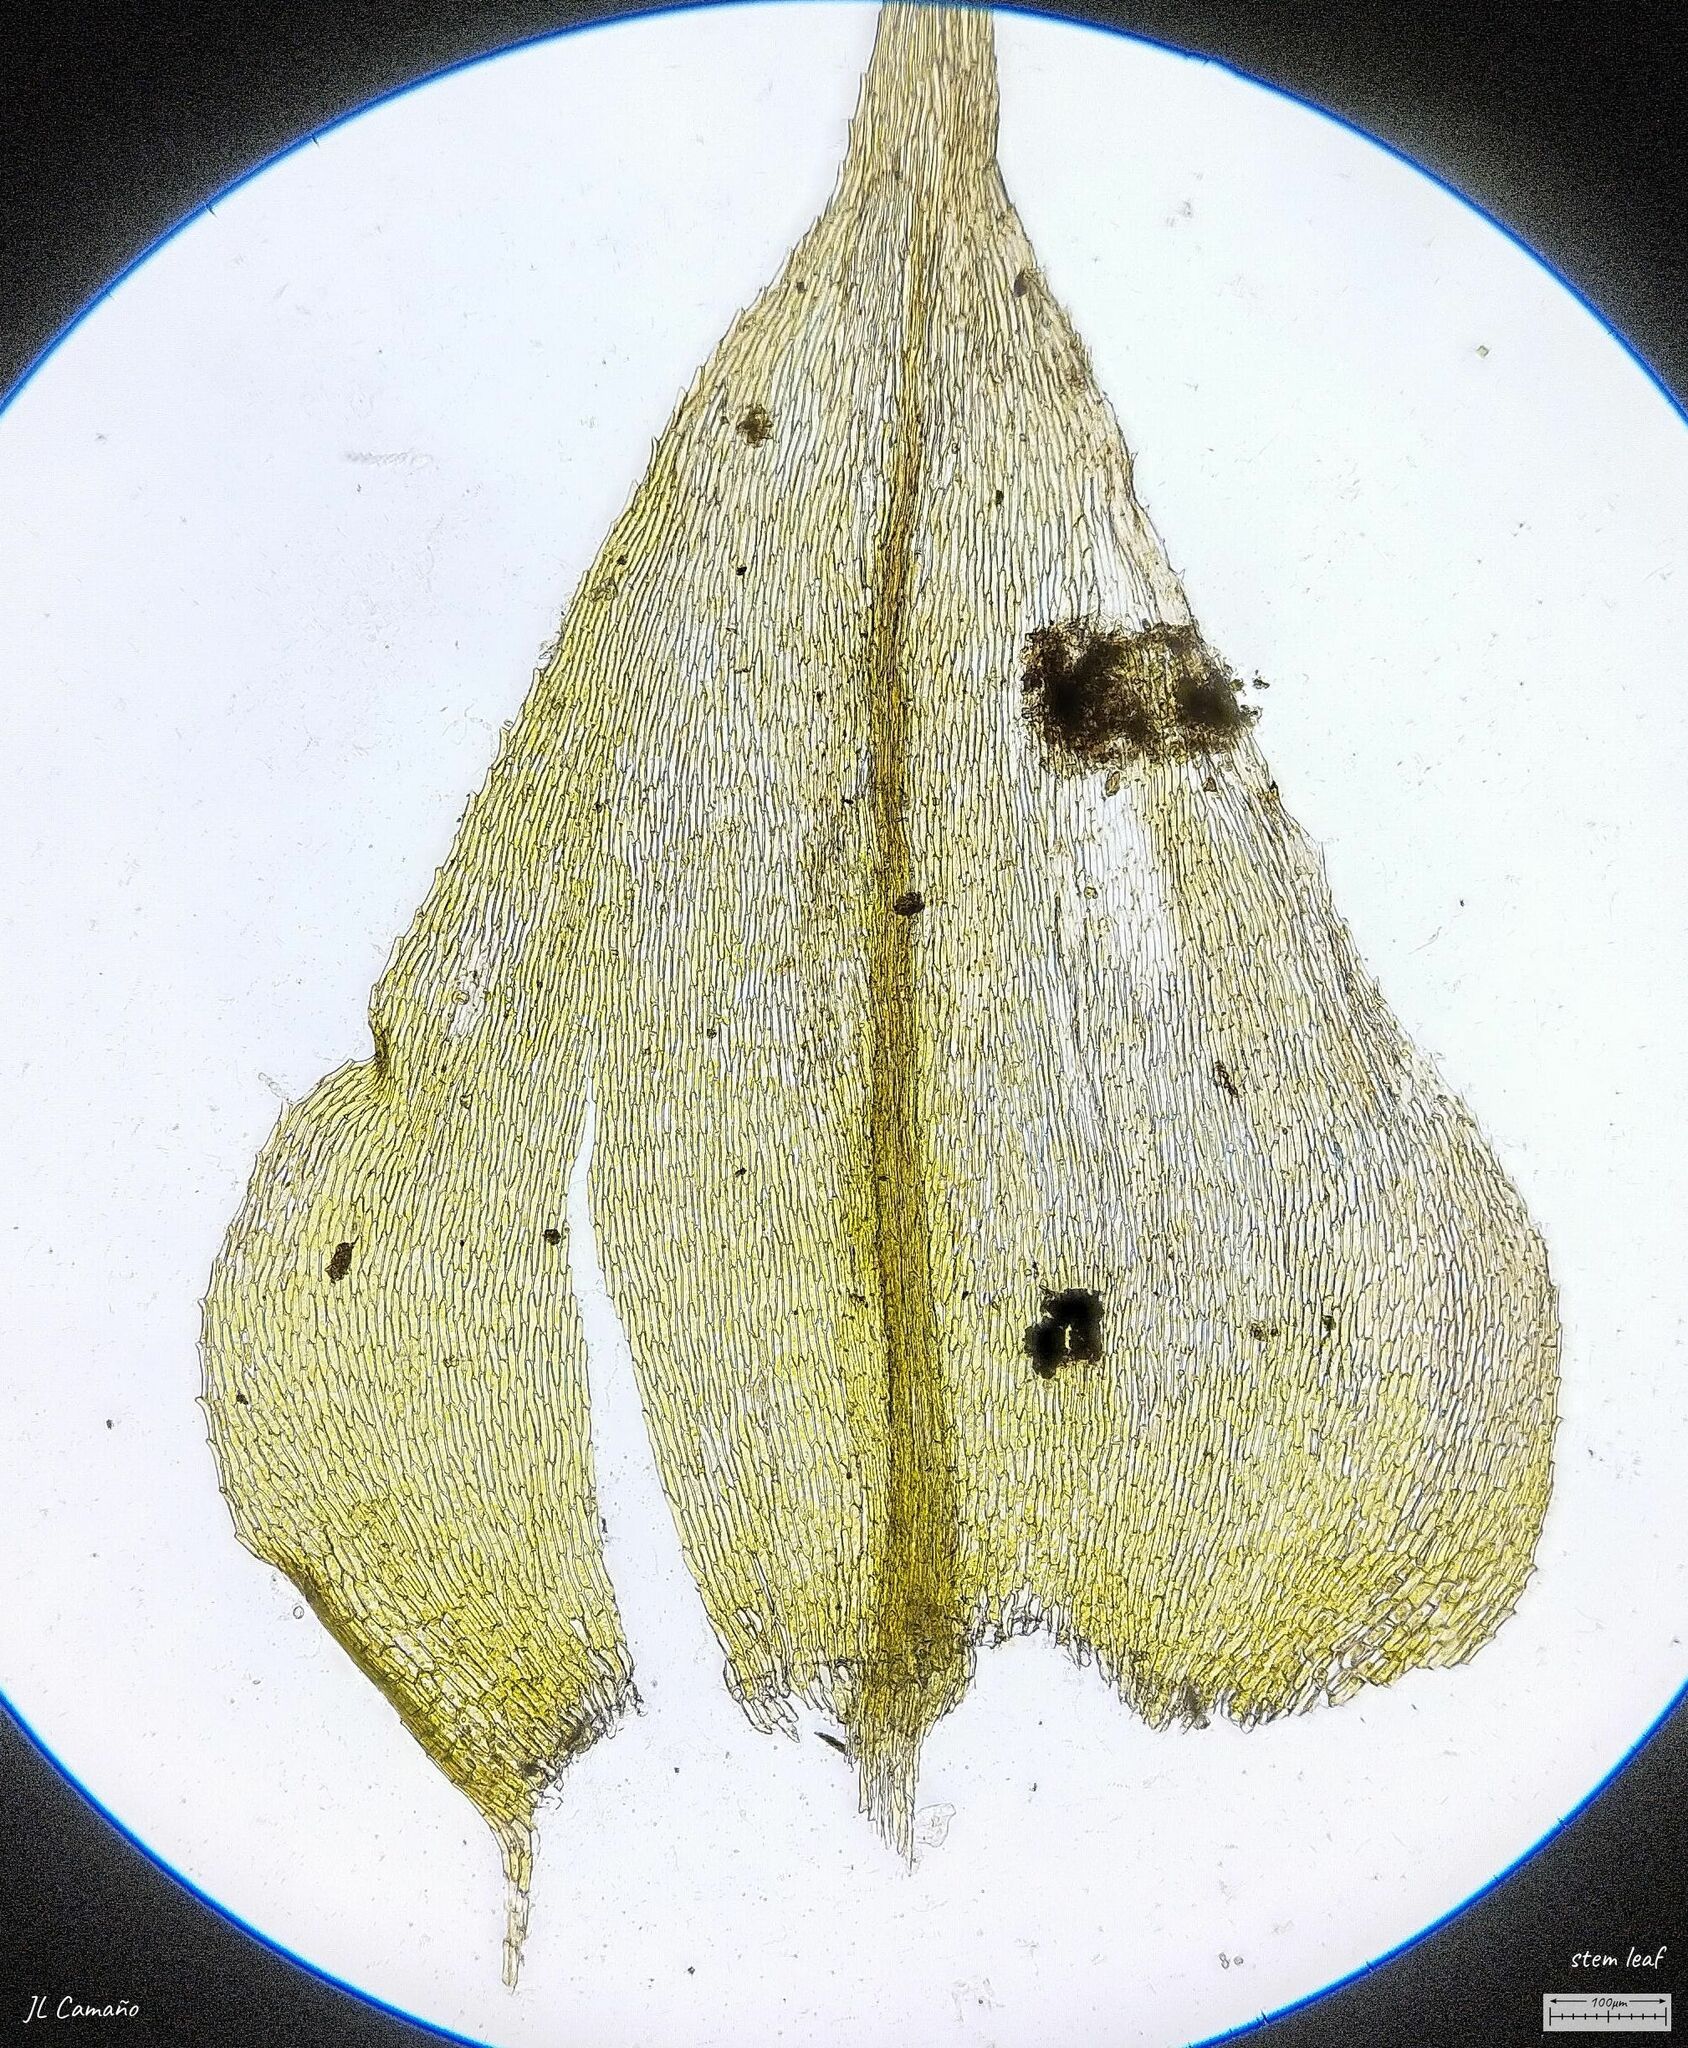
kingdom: Plantae
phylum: Bryophyta
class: Bryopsida
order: Hypnales
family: Brachytheciaceae
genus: Kindbergia
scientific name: Kindbergia praelonga
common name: Slender beaked moss
